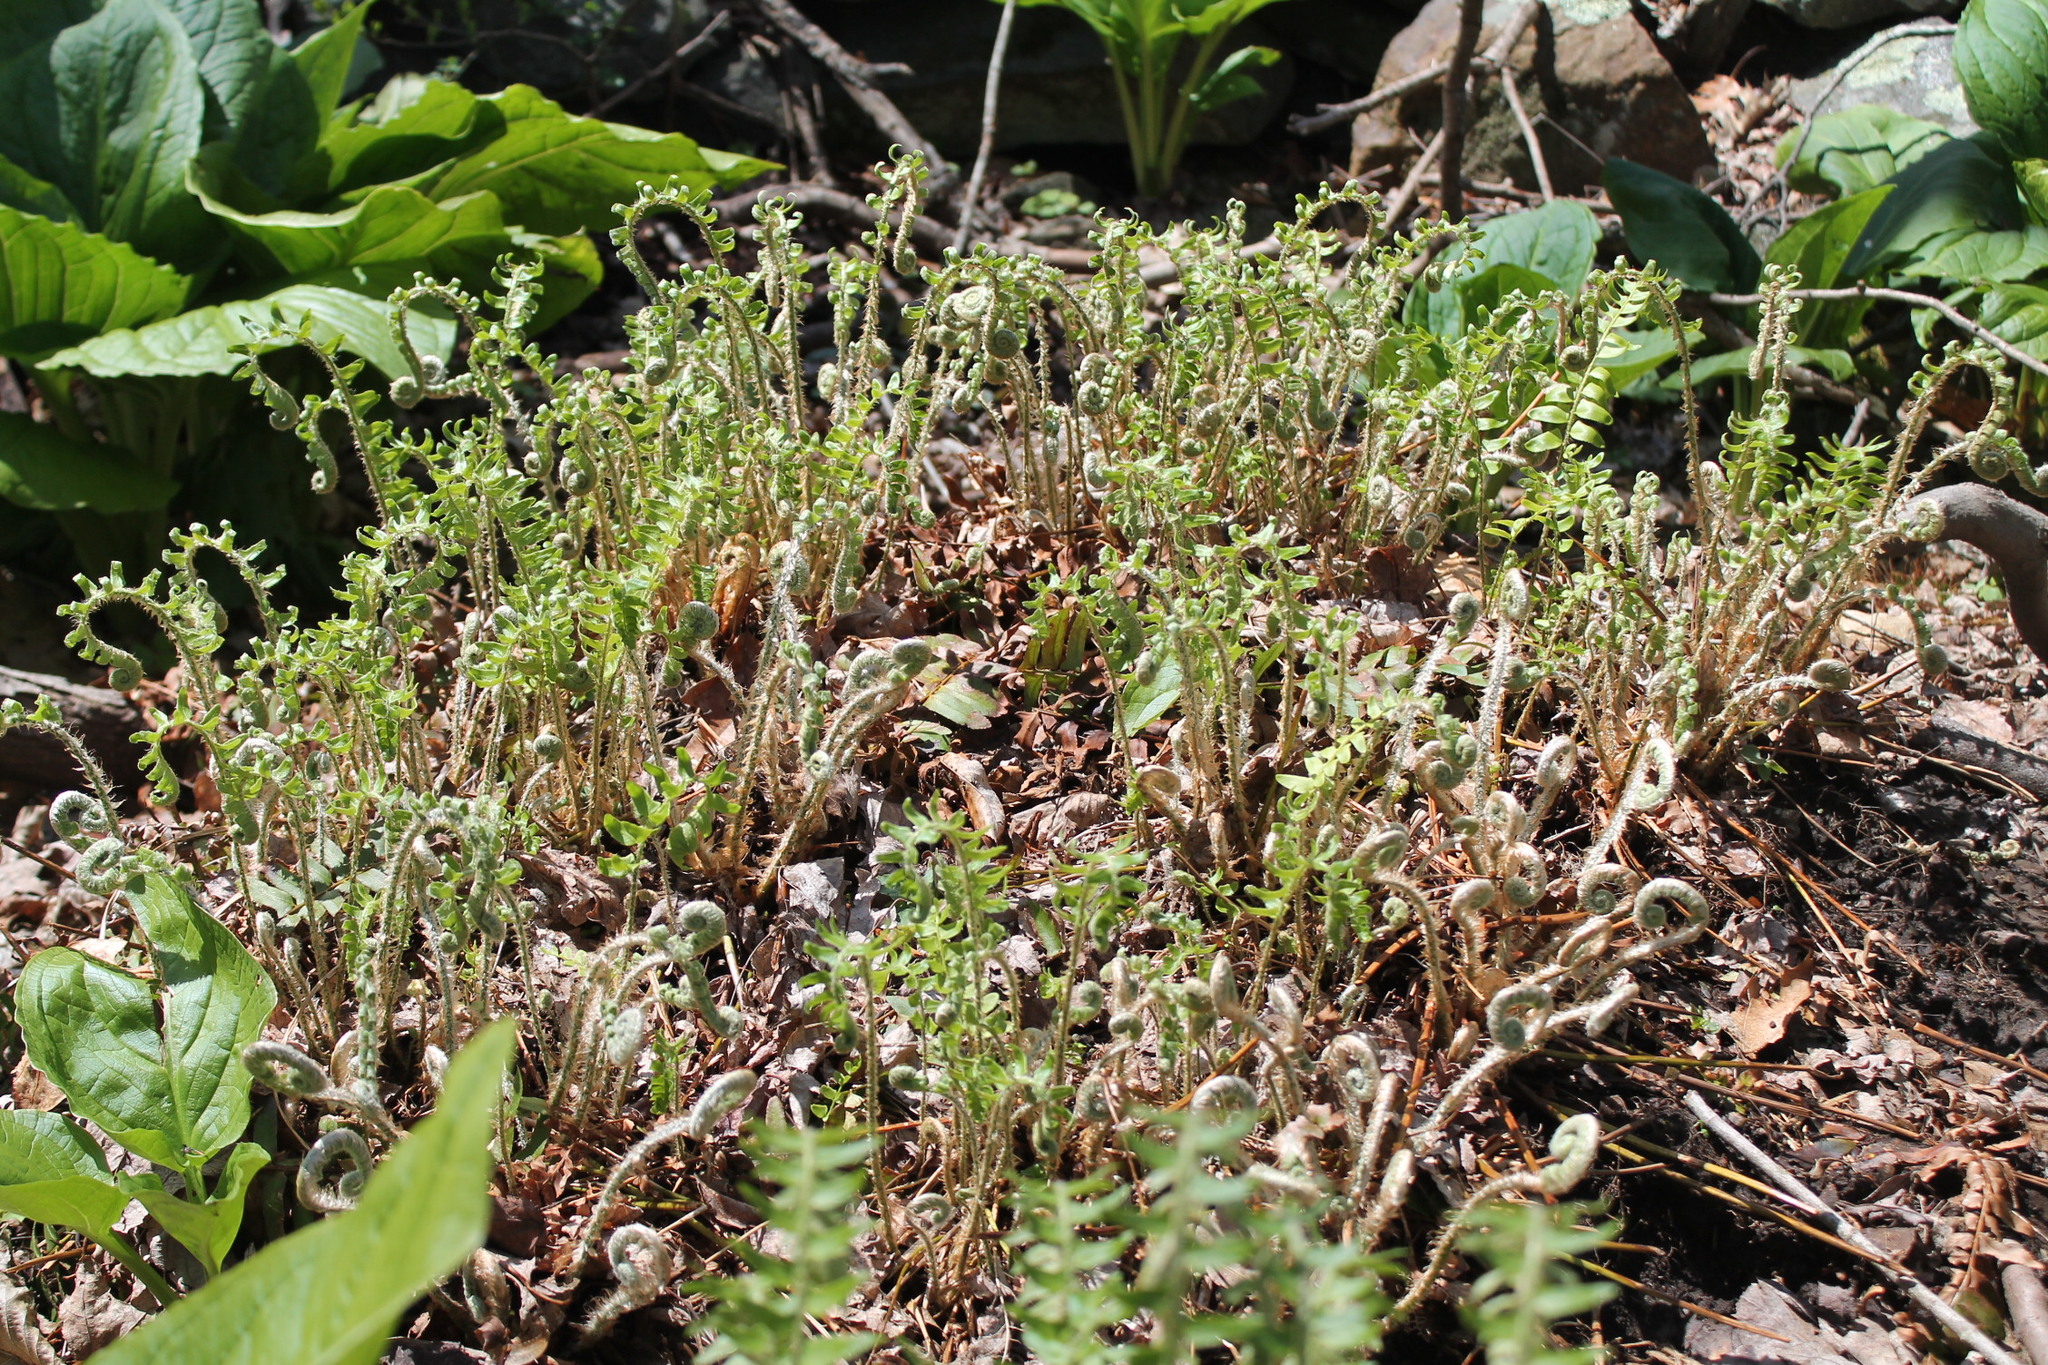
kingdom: Plantae
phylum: Tracheophyta
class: Polypodiopsida
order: Polypodiales
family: Dryopteridaceae
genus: Polystichum
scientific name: Polystichum acrostichoides
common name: Christmas fern
